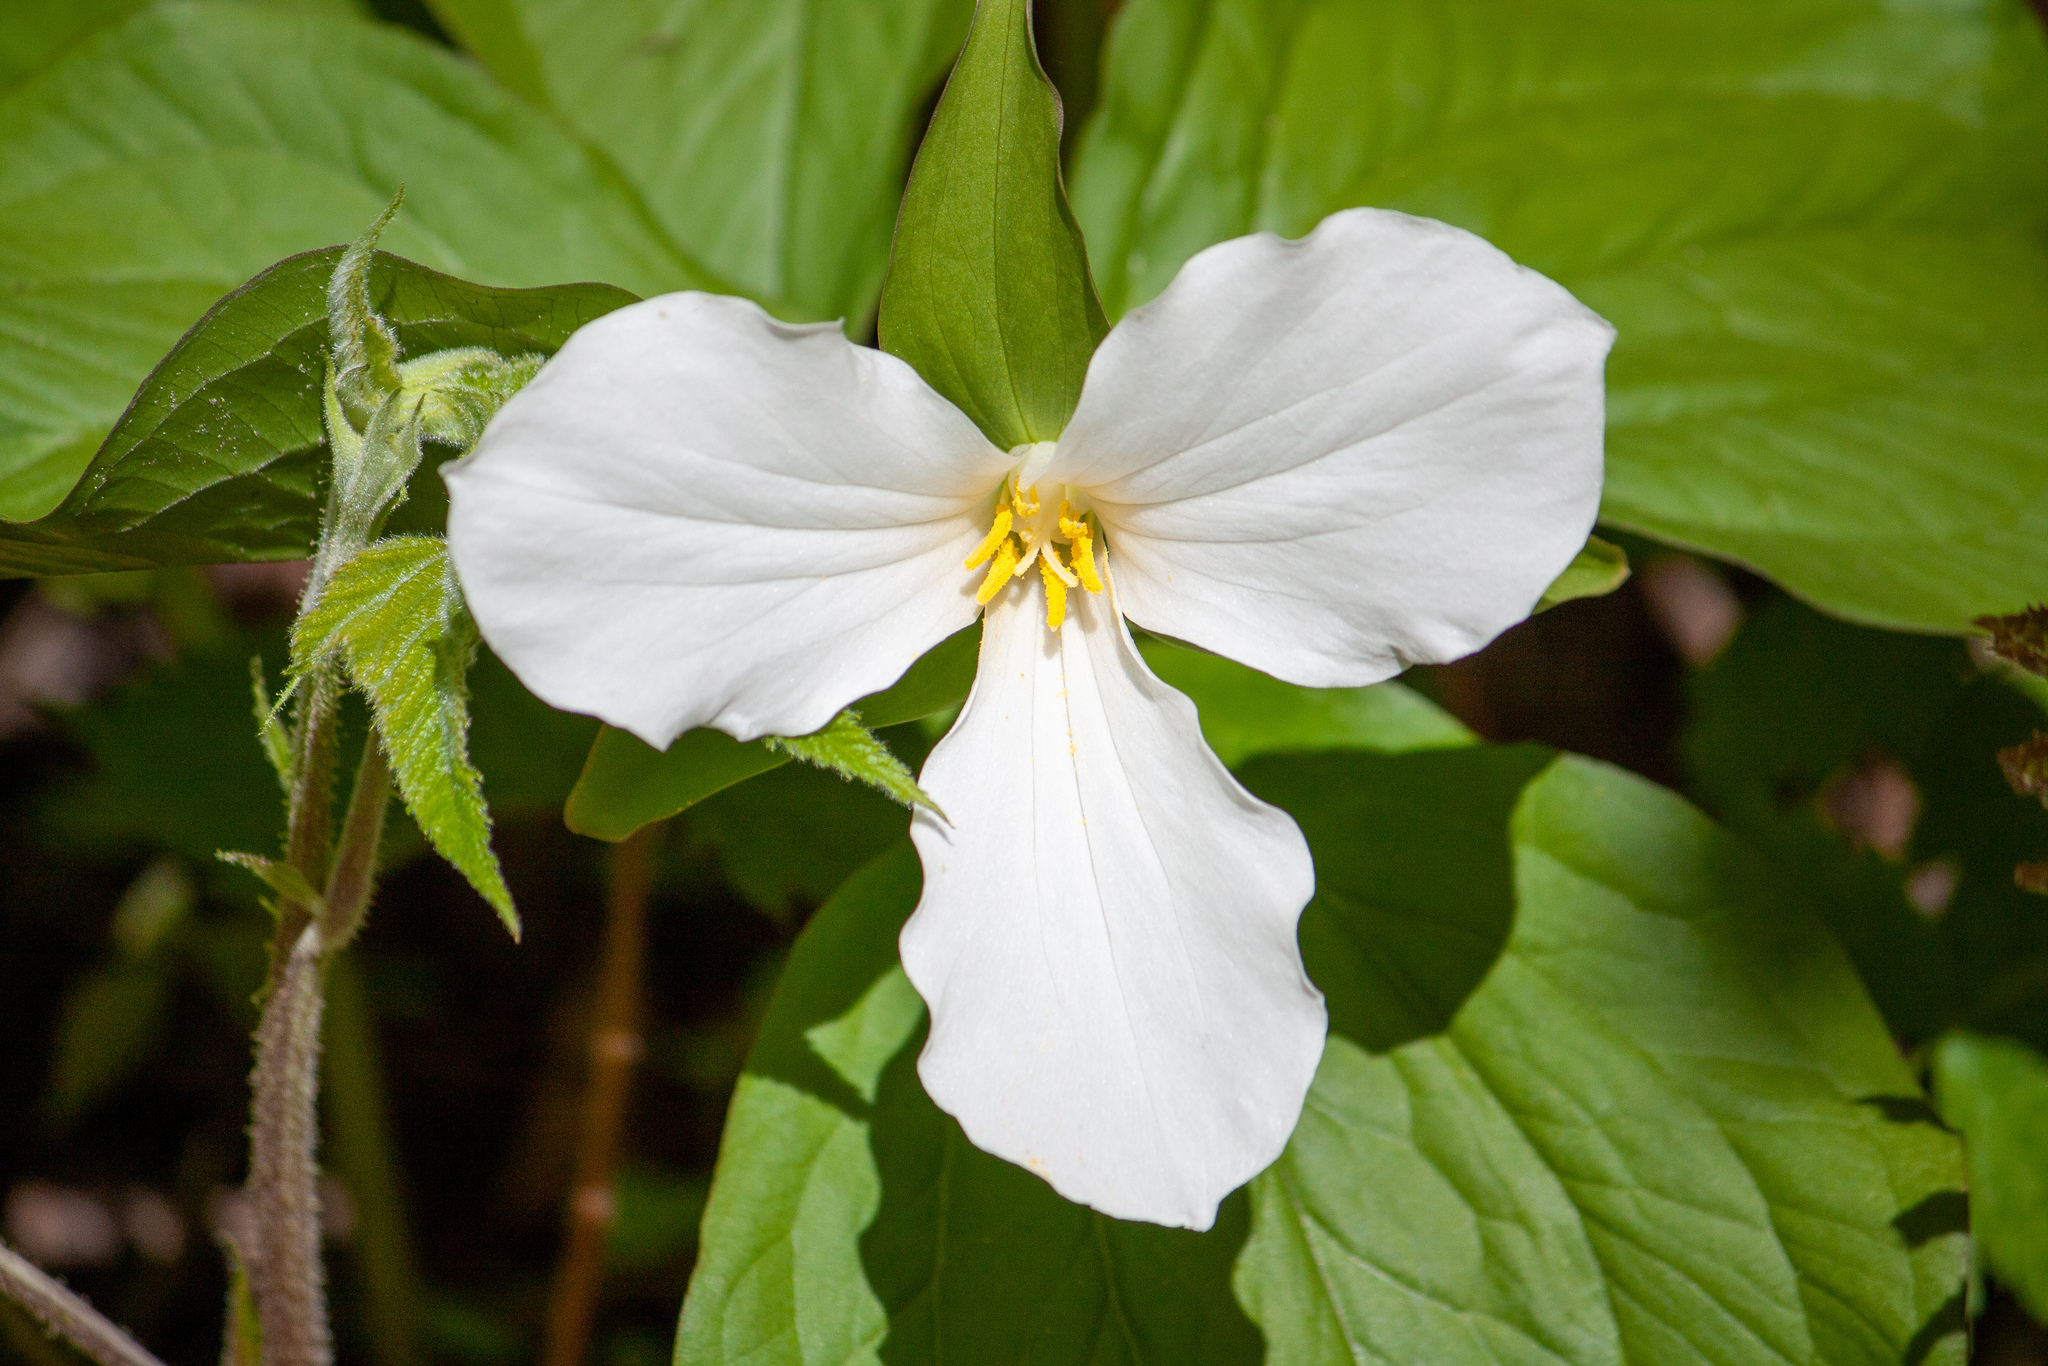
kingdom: Plantae
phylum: Tracheophyta
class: Liliopsida
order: Liliales
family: Melanthiaceae
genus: Trillium
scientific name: Trillium grandiflorum
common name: Great white trillium
